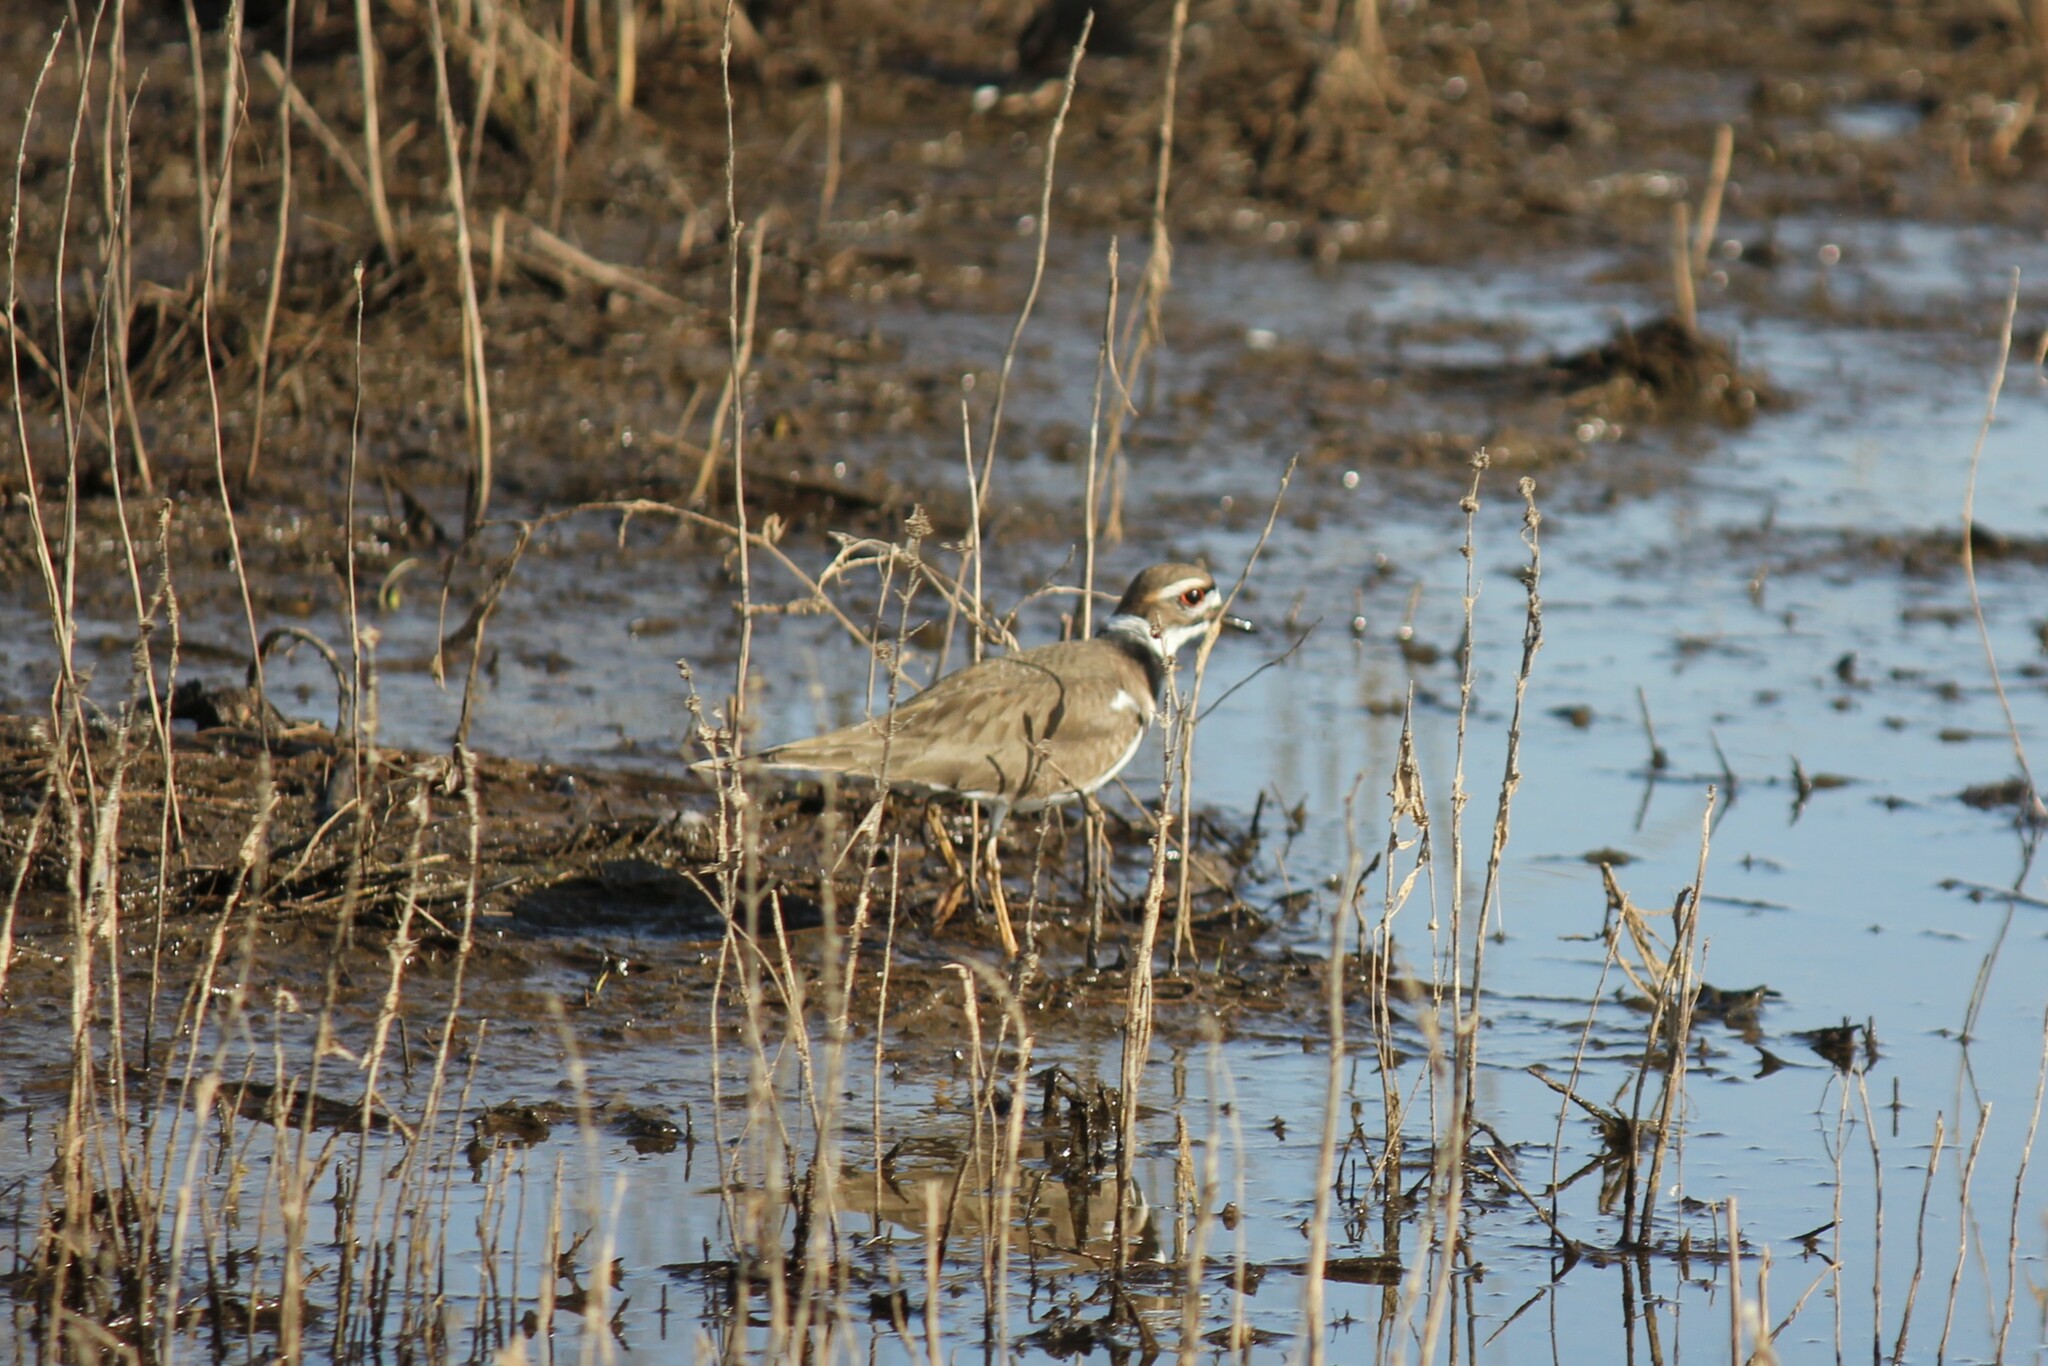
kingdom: Animalia
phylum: Chordata
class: Aves
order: Charadriiformes
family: Charadriidae
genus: Charadrius
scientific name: Charadrius vociferus
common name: Killdeer
